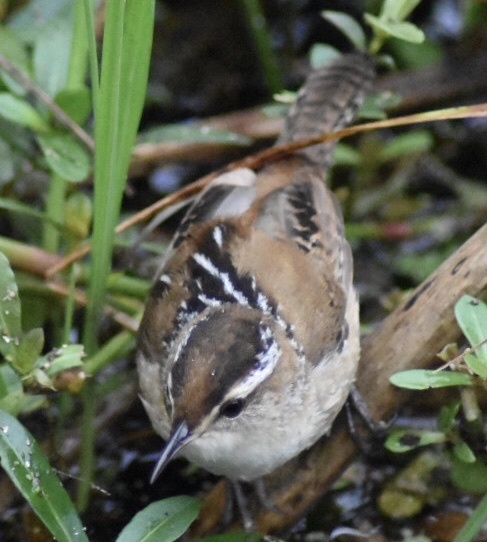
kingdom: Animalia
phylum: Chordata
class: Aves
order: Passeriformes
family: Troglodytidae
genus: Cistothorus
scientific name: Cistothorus palustris
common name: Marsh wren
